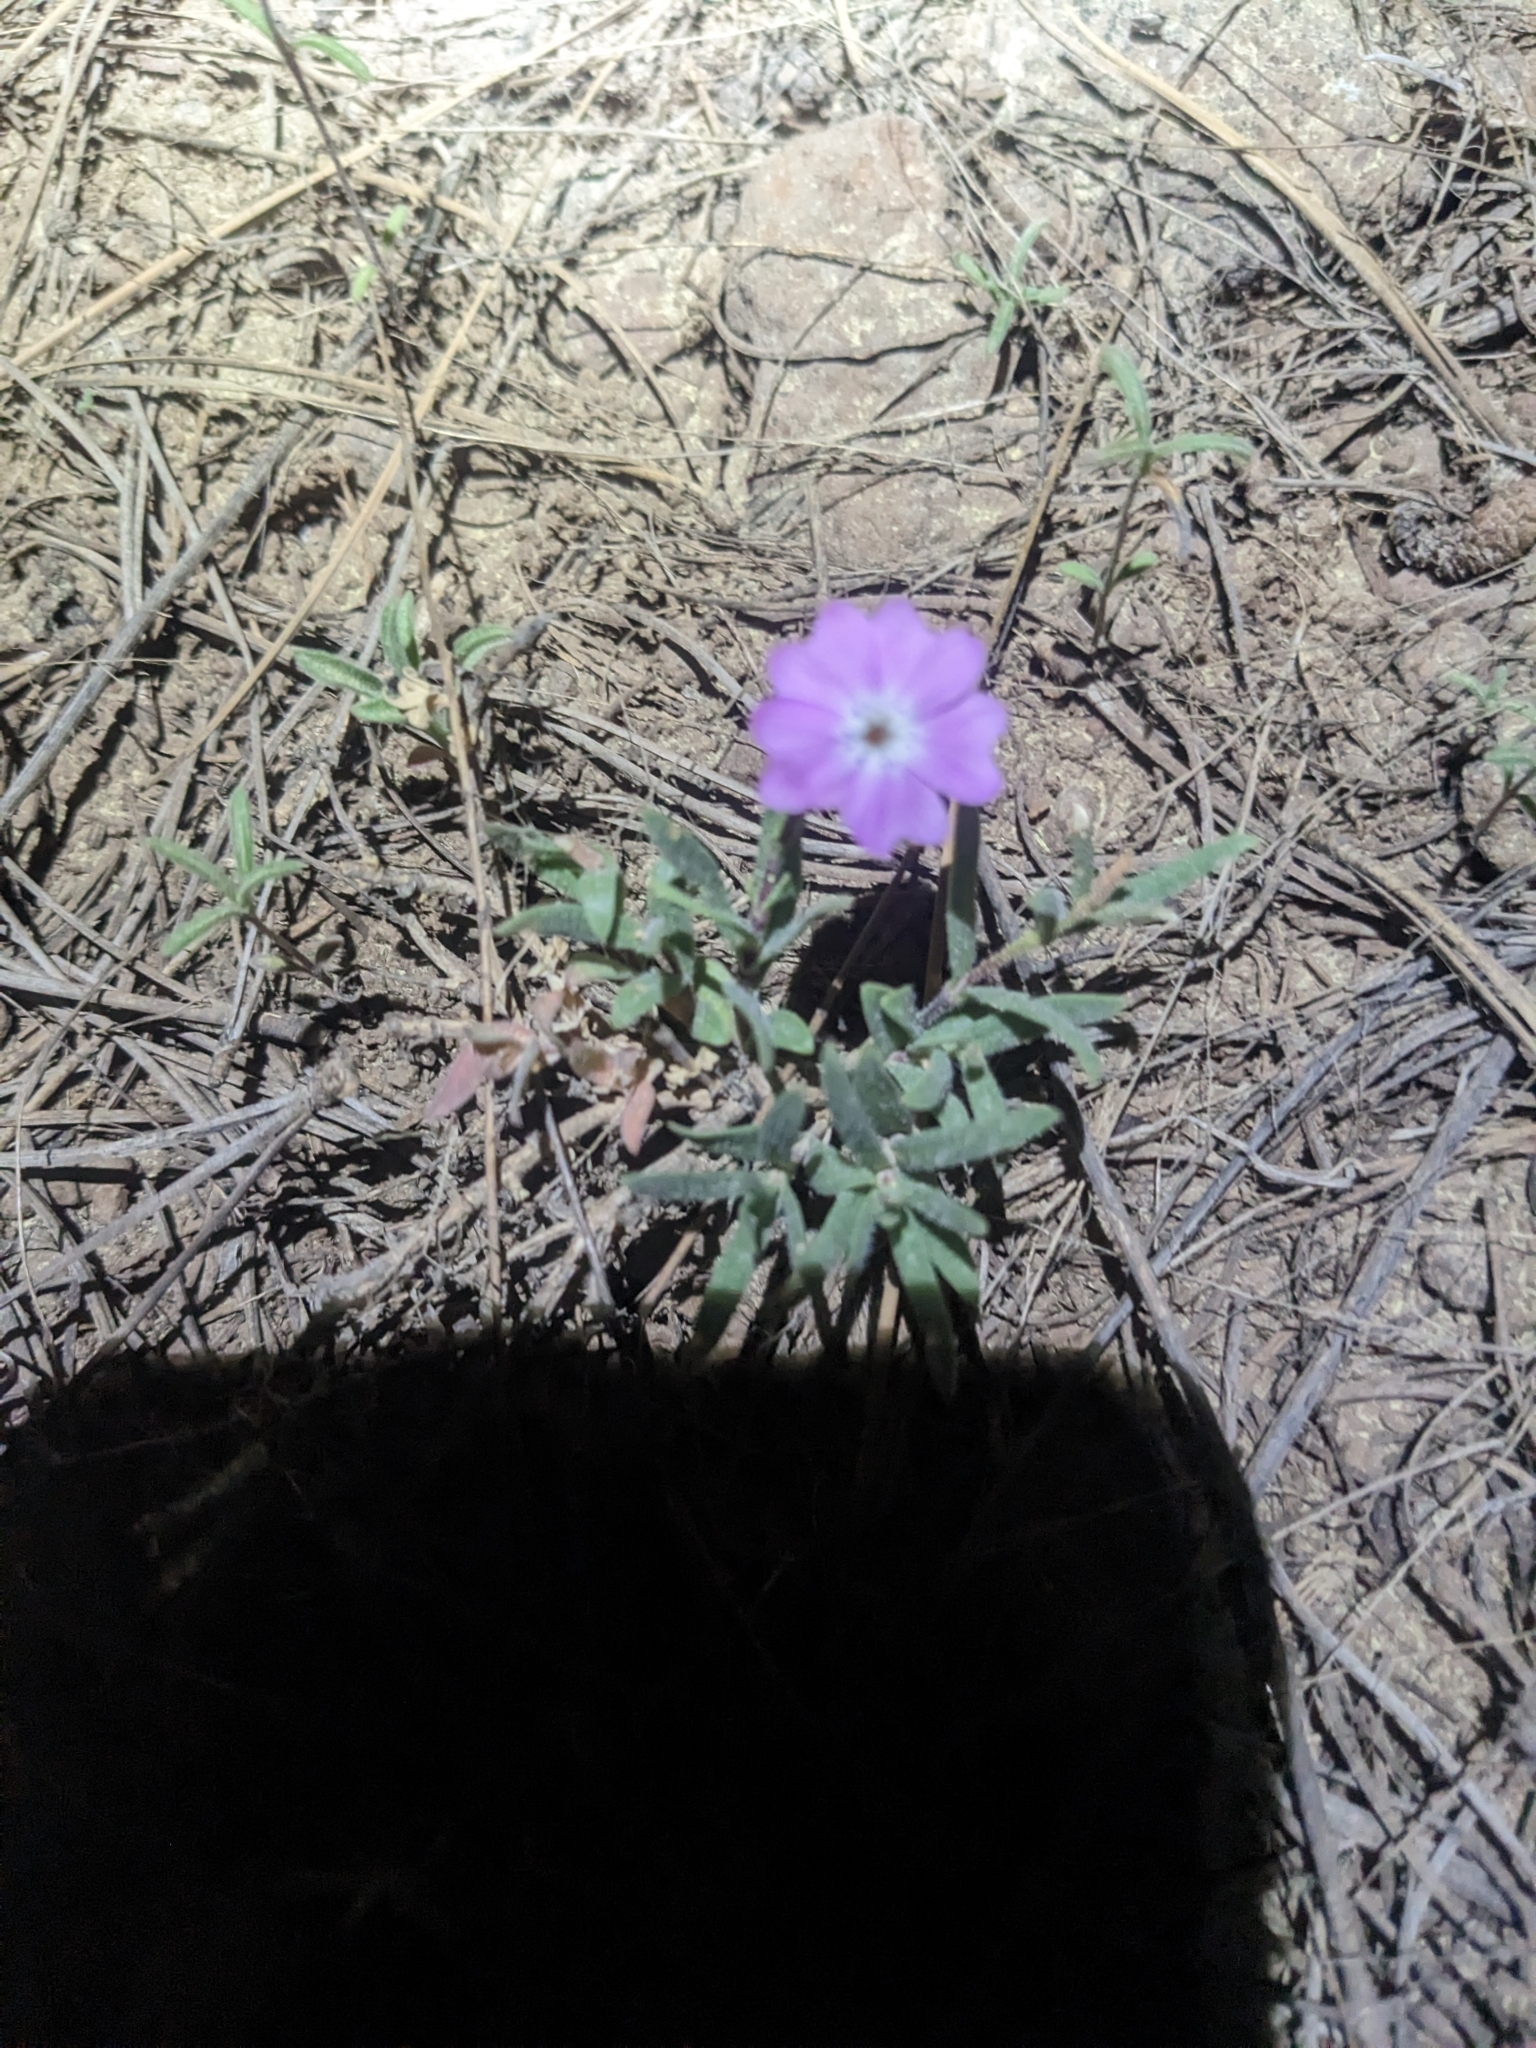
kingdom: Plantae
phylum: Tracheophyta
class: Magnoliopsida
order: Ericales
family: Polemoniaceae
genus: Phlox
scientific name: Phlox woodhousei
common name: Star phlox
